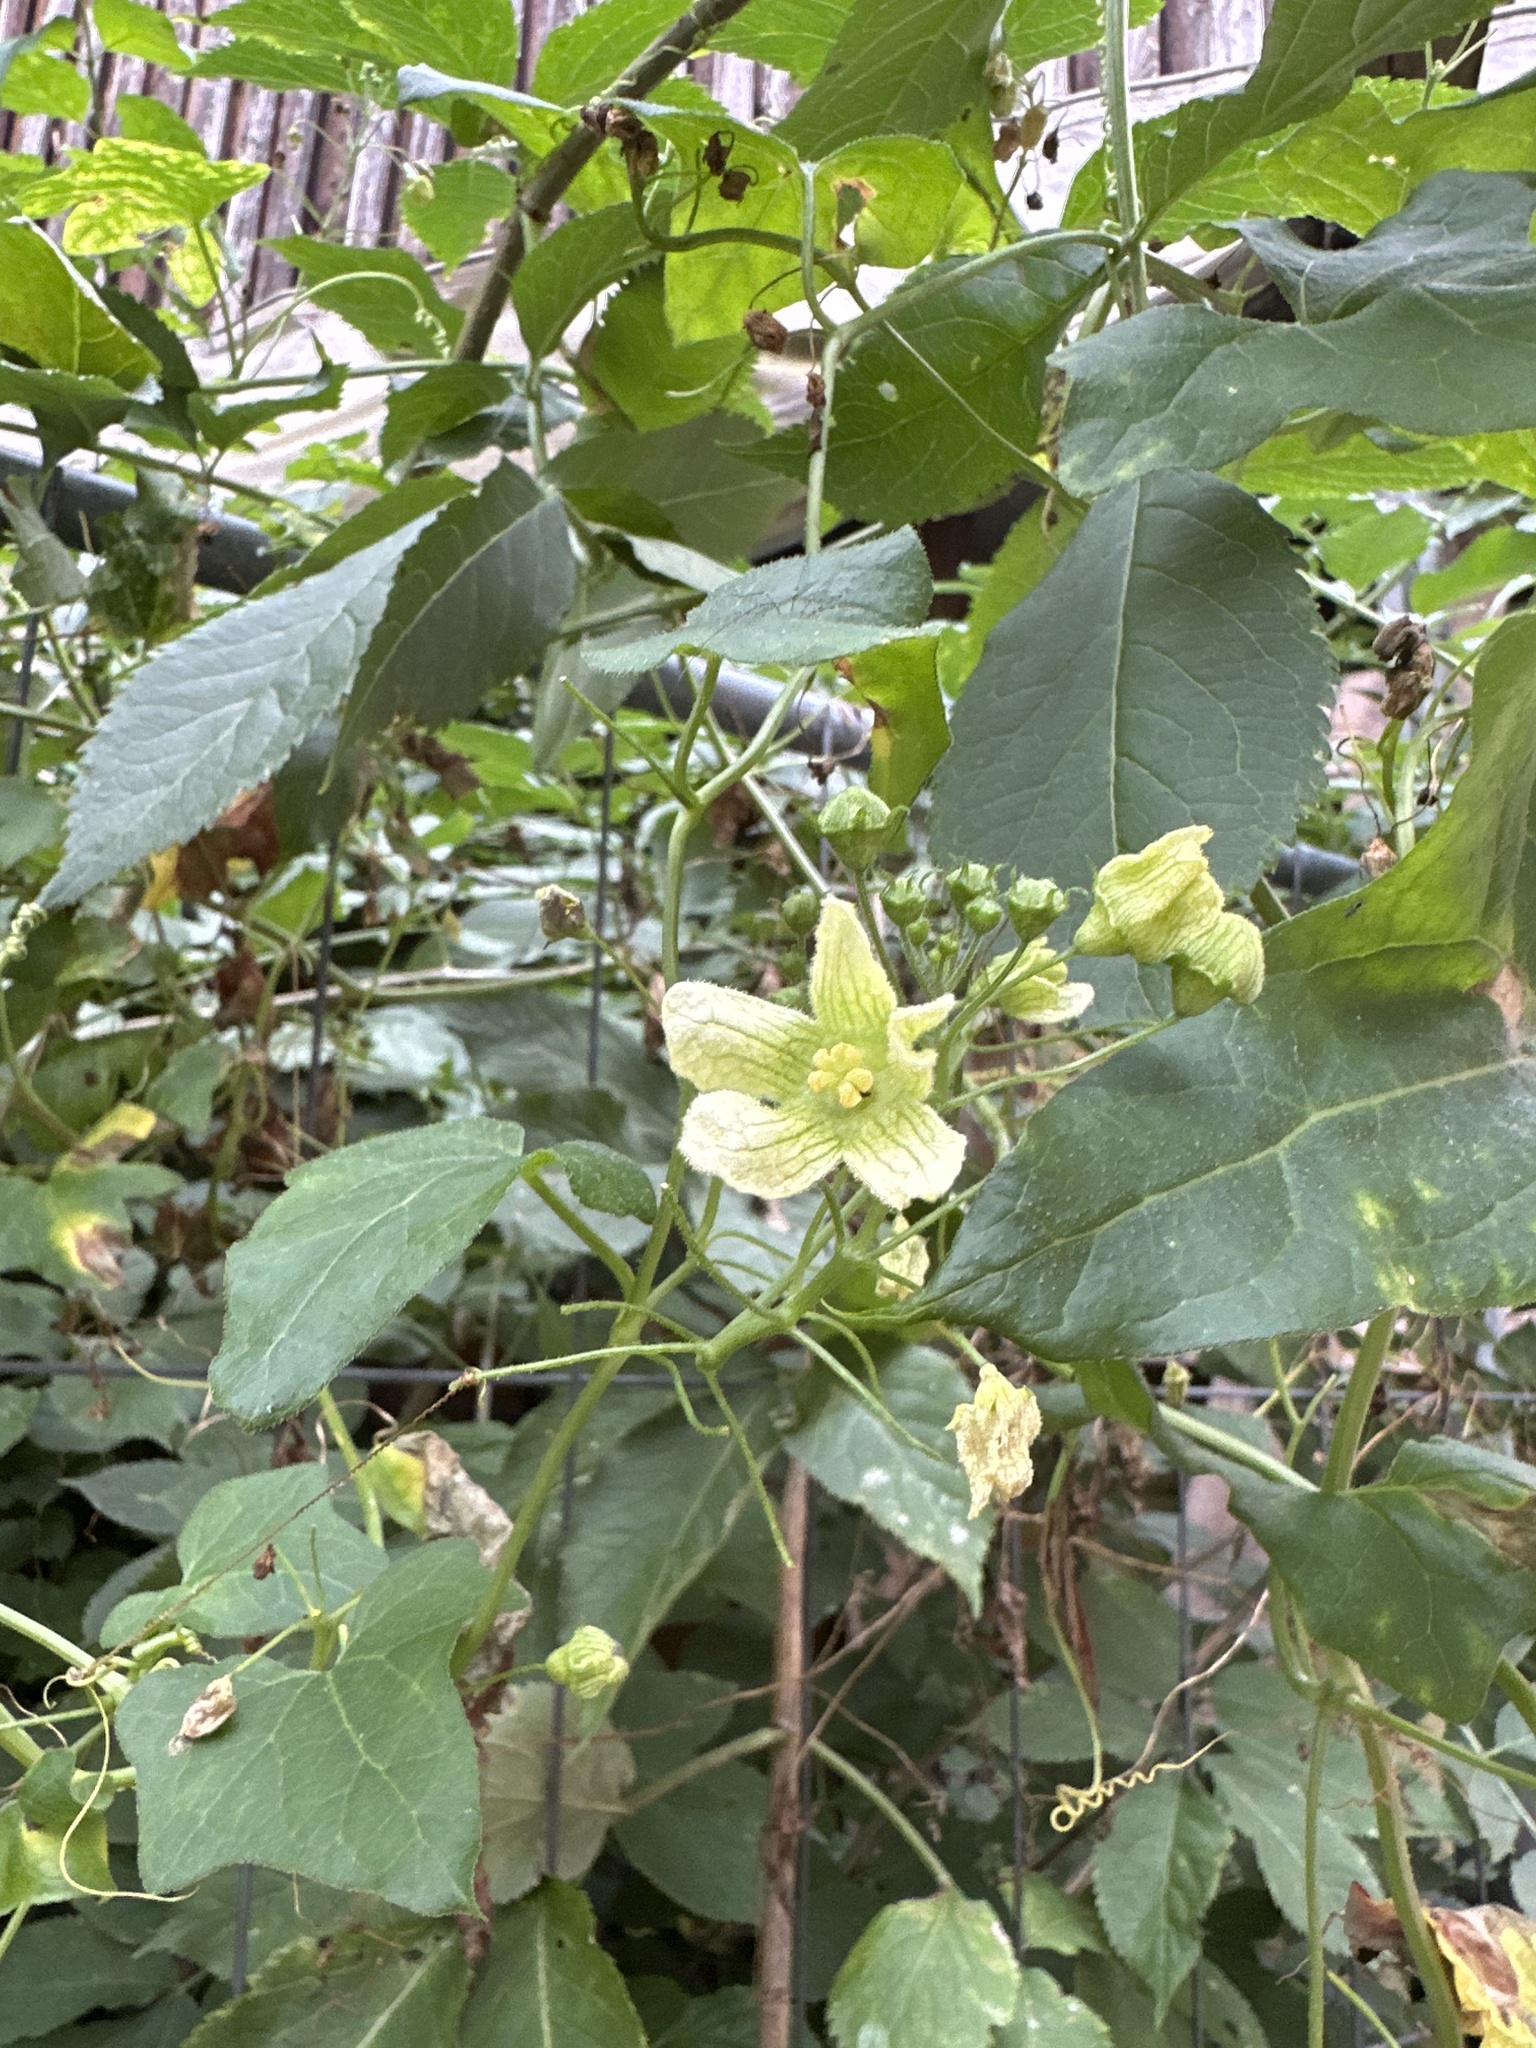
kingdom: Plantae
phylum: Tracheophyta
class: Magnoliopsida
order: Cucurbitales
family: Cucurbitaceae
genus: Bryonia
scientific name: Bryonia cretica
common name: Cretan bryony
